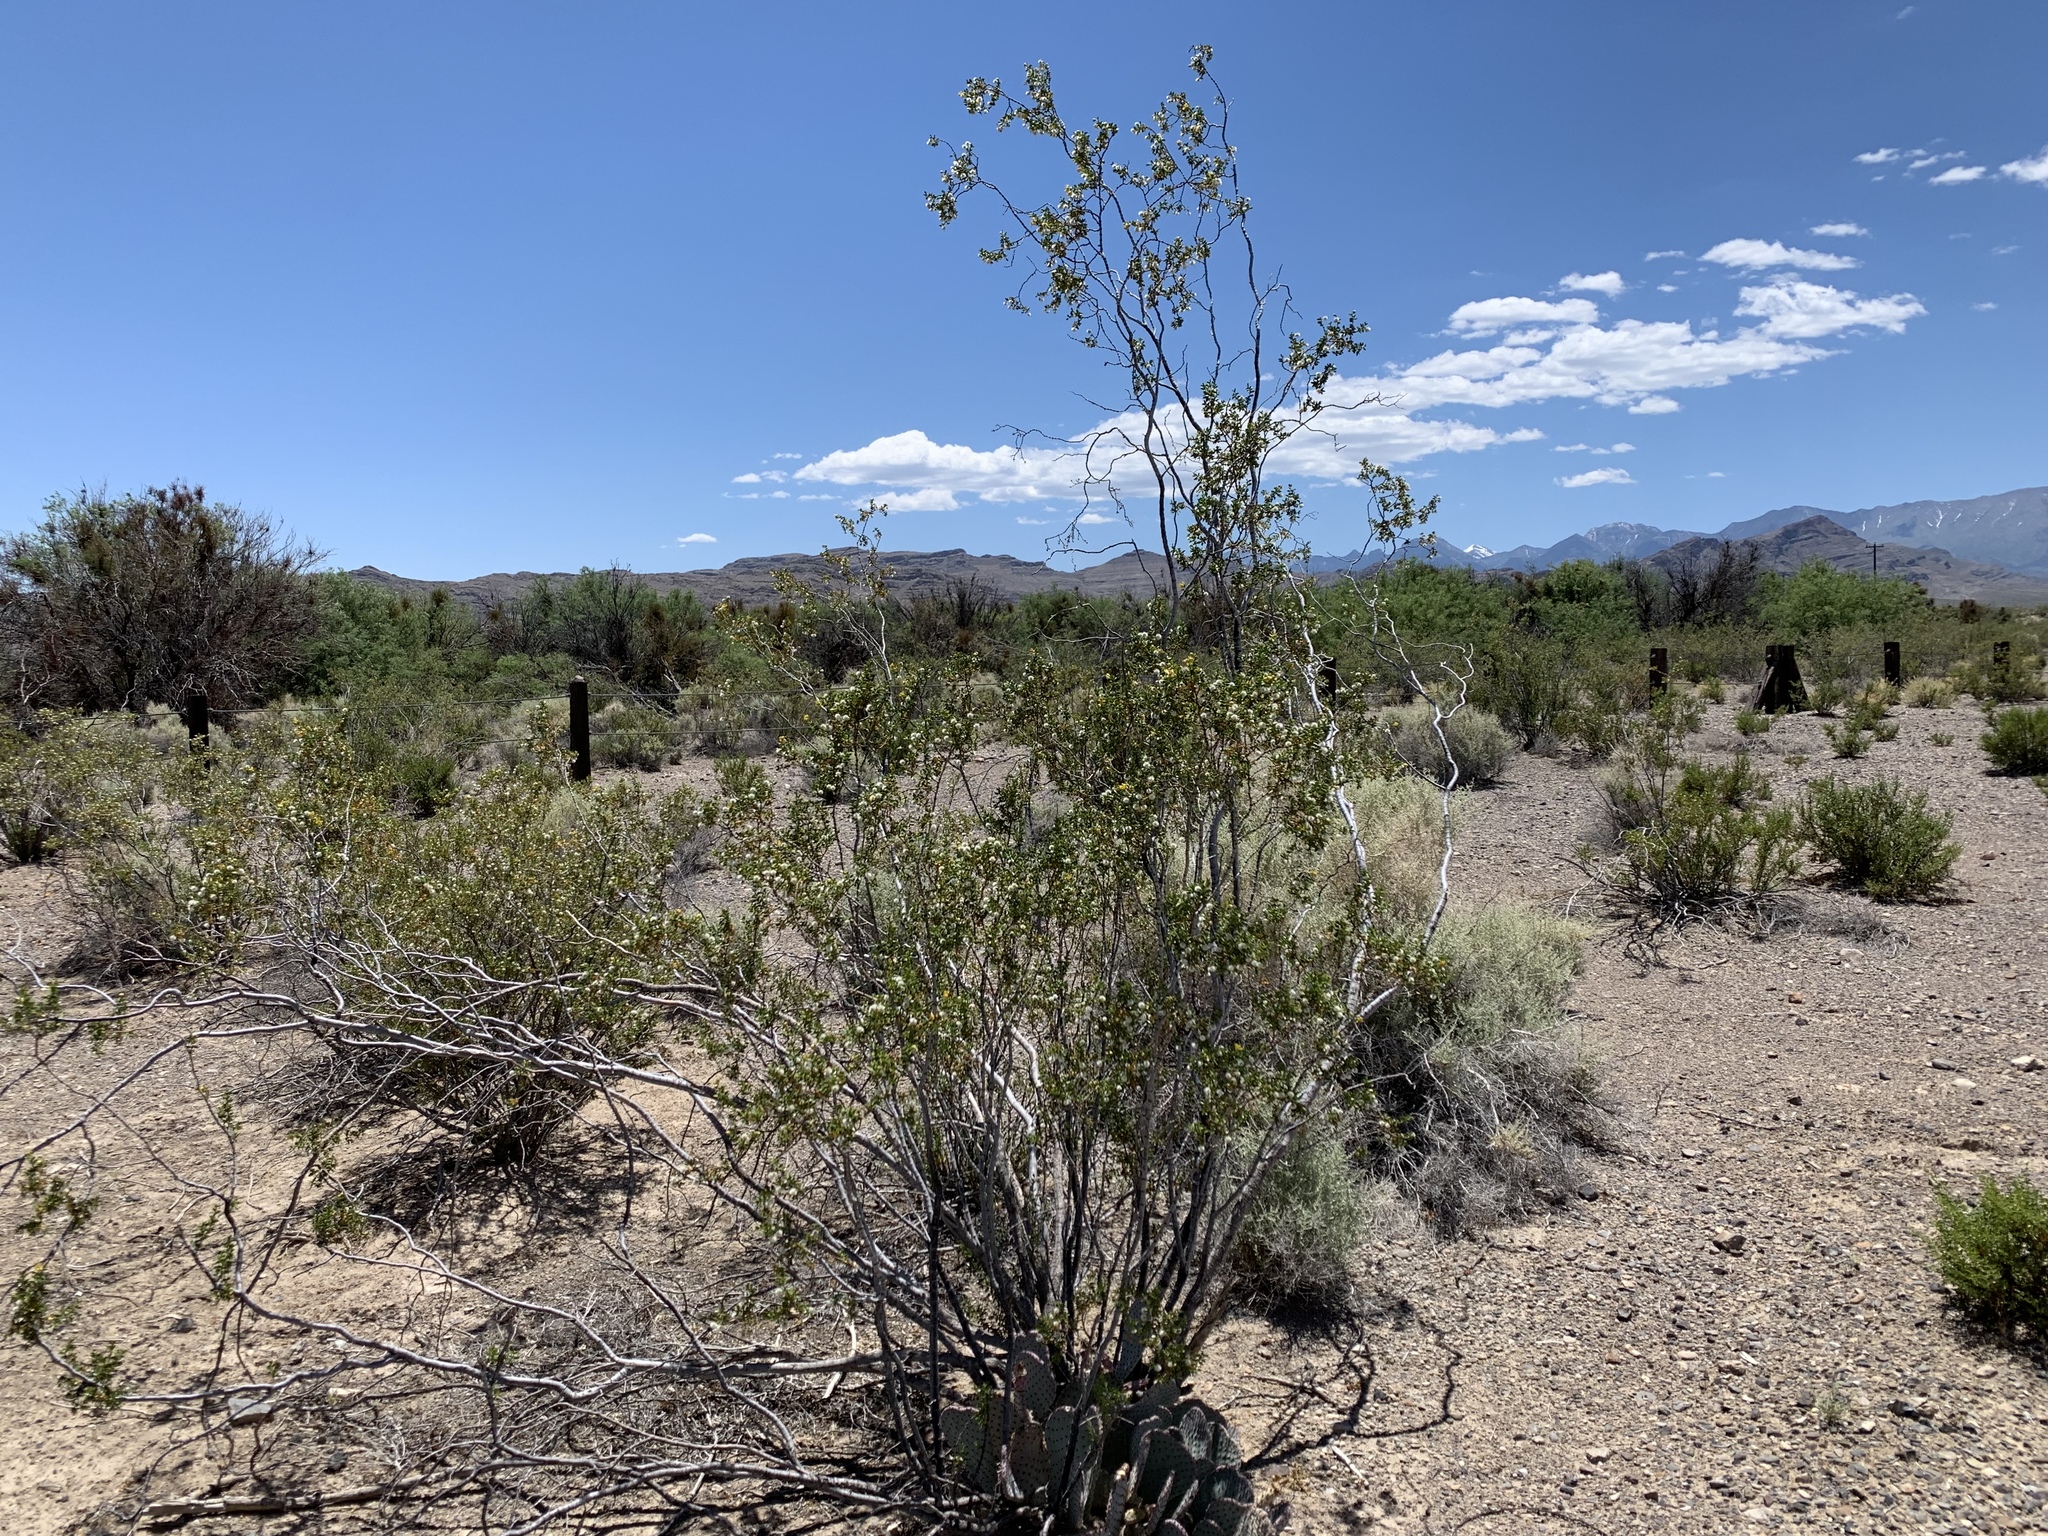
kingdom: Plantae
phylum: Tracheophyta
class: Magnoliopsida
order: Zygophyllales
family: Zygophyllaceae
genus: Larrea
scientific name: Larrea tridentata
